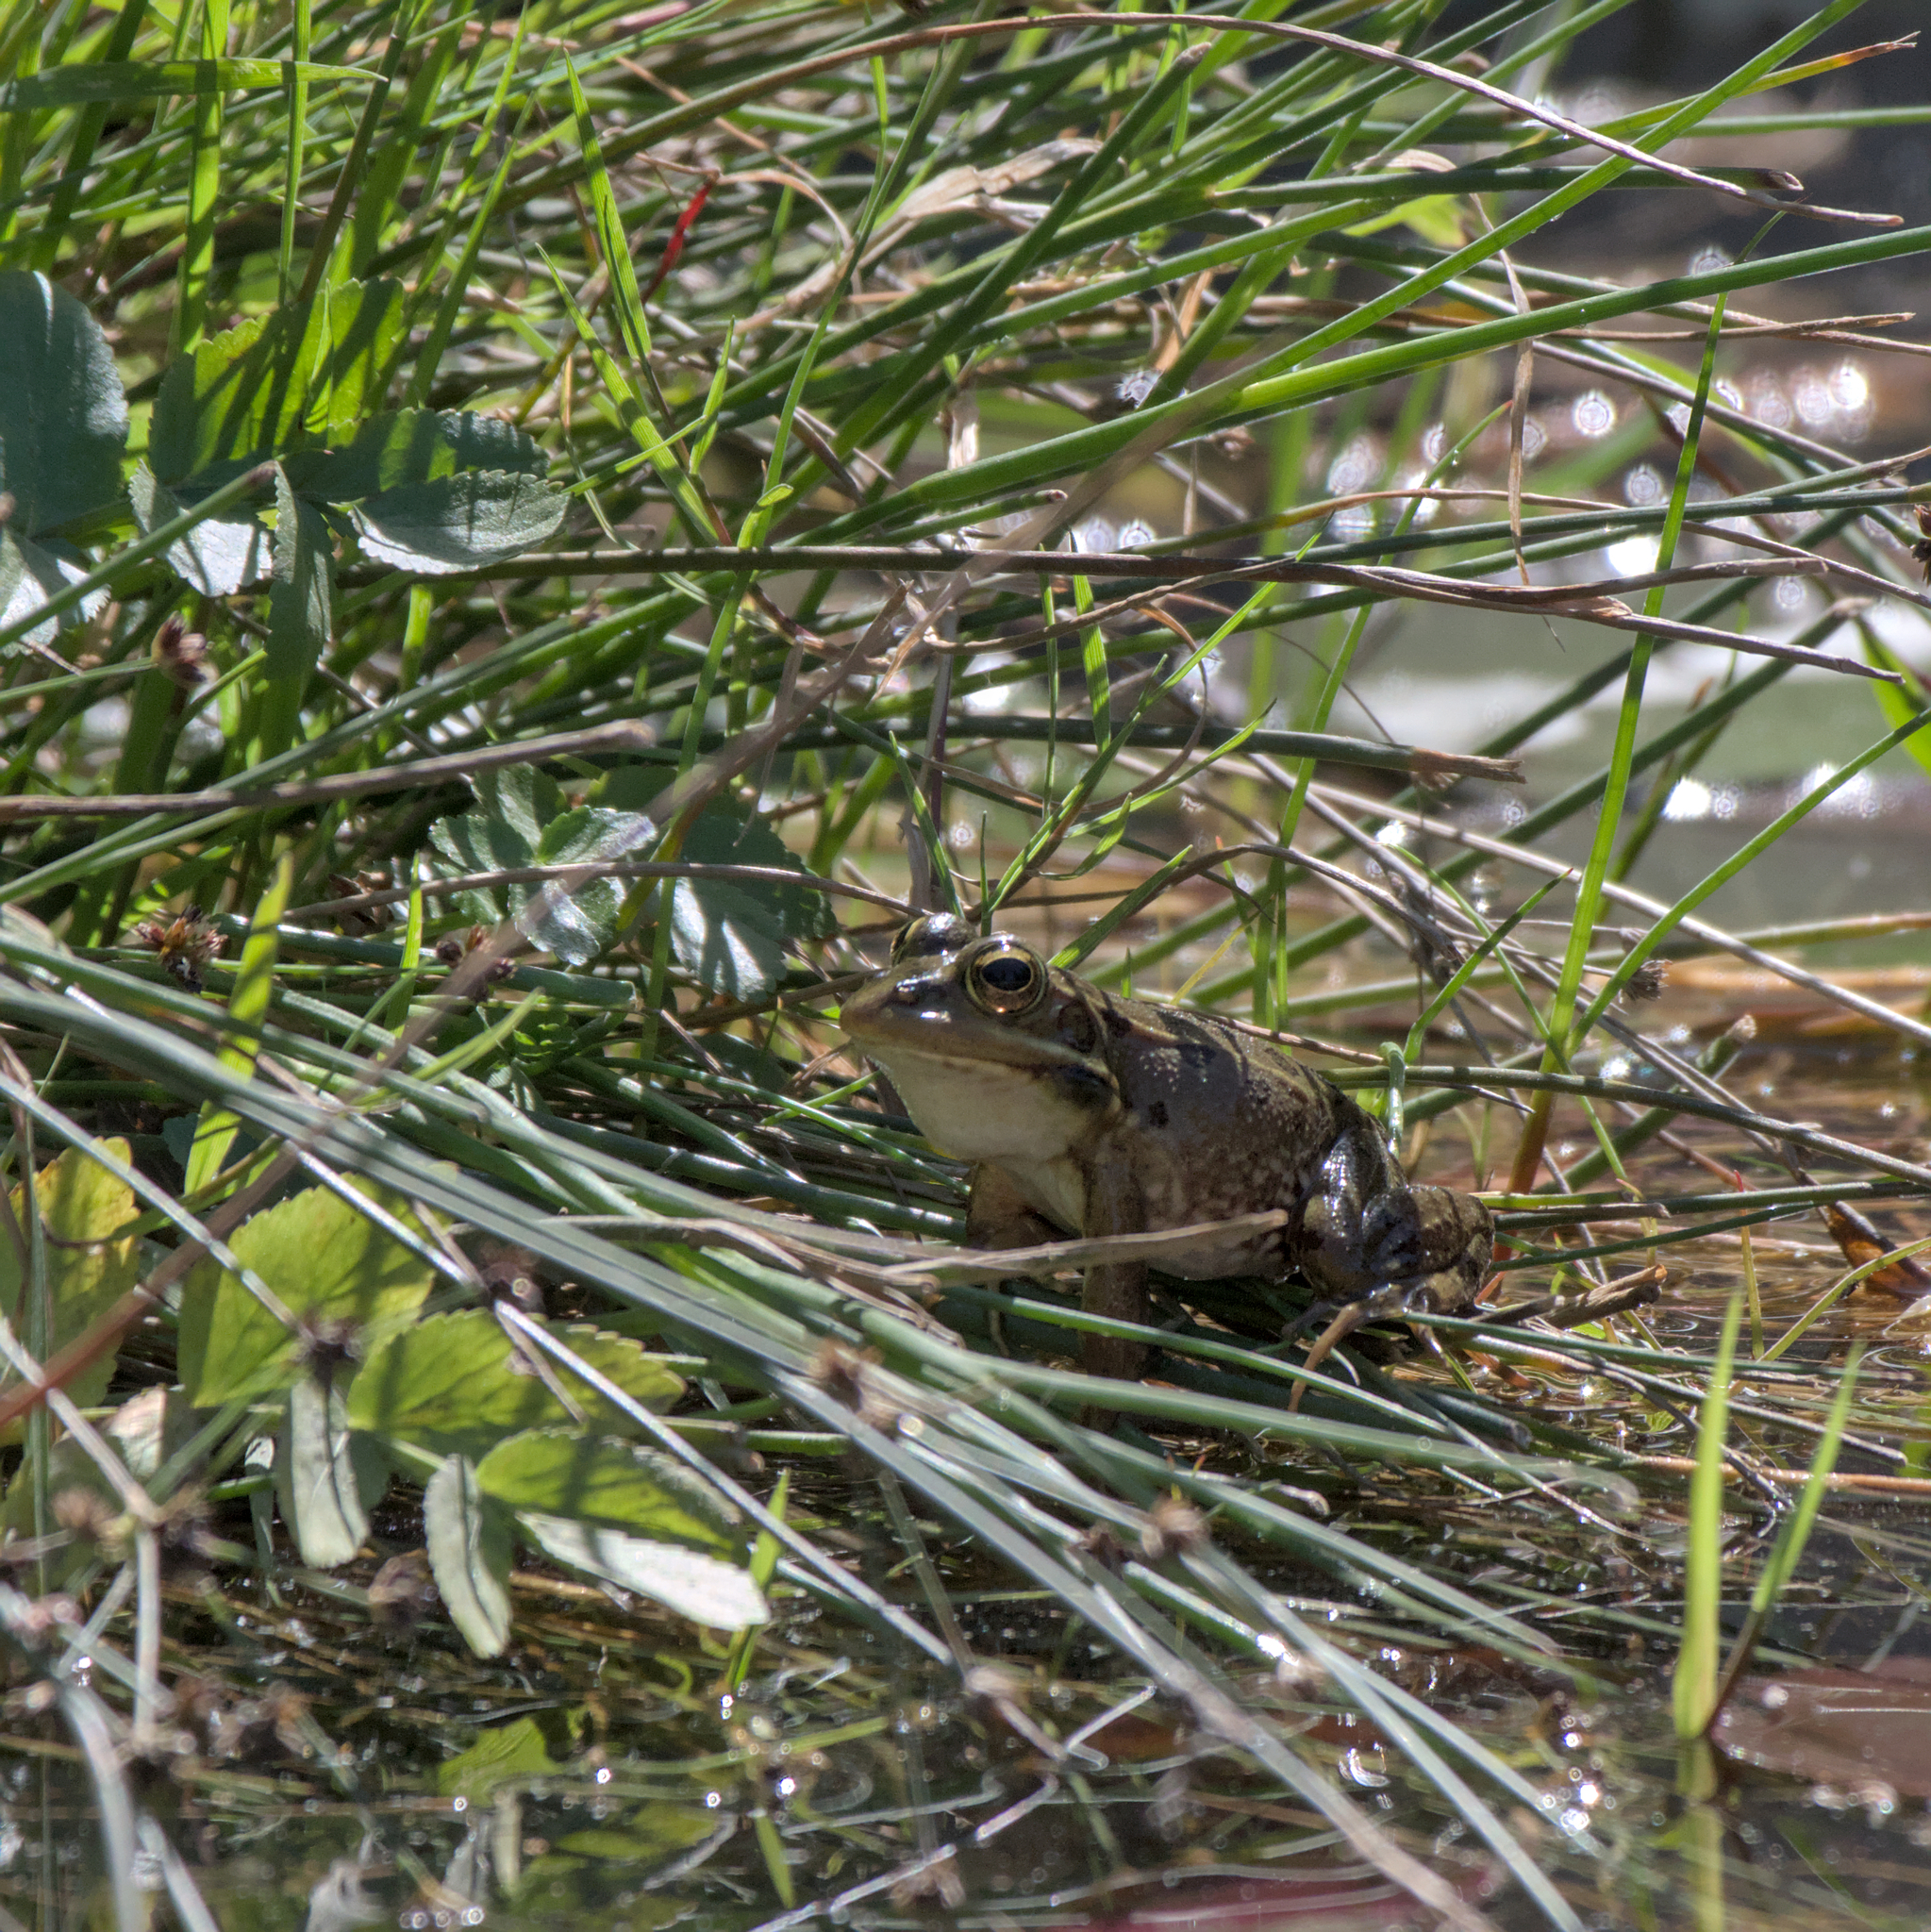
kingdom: Animalia
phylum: Chordata
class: Amphibia
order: Anura
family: Ranidae
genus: Pelophylax
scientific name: Pelophylax perezi
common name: Perez's frog
